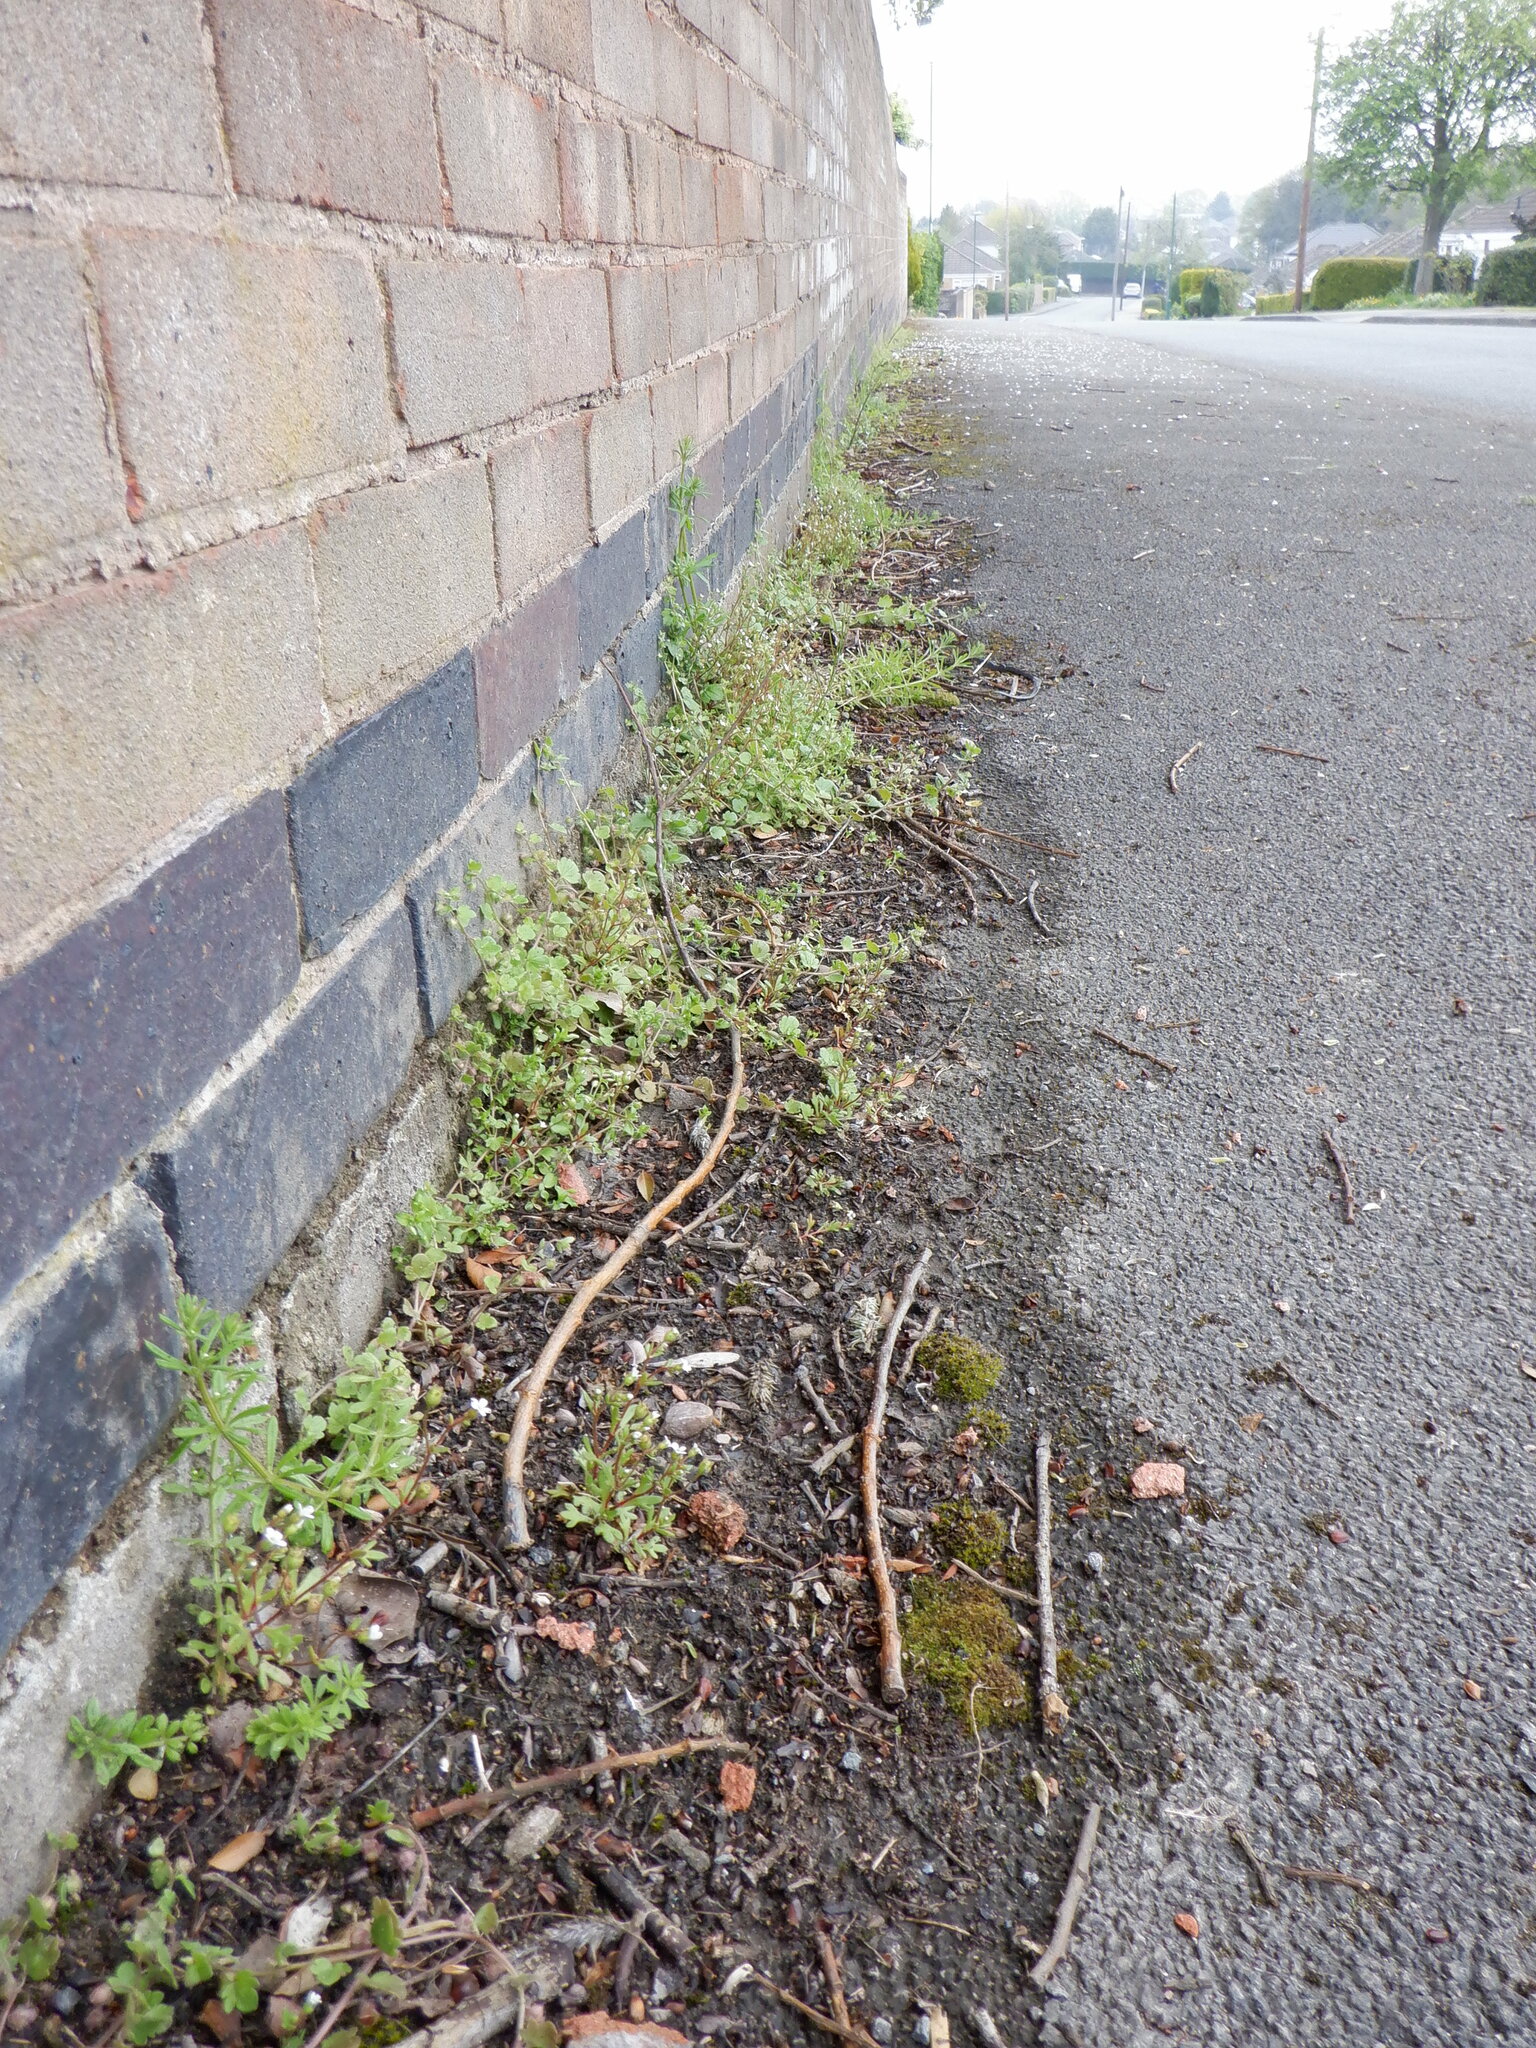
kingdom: Plantae
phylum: Tracheophyta
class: Magnoliopsida
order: Saxifragales
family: Saxifragaceae
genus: Saxifraga
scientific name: Saxifraga tridactylites
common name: Rue-leaved saxifrage
